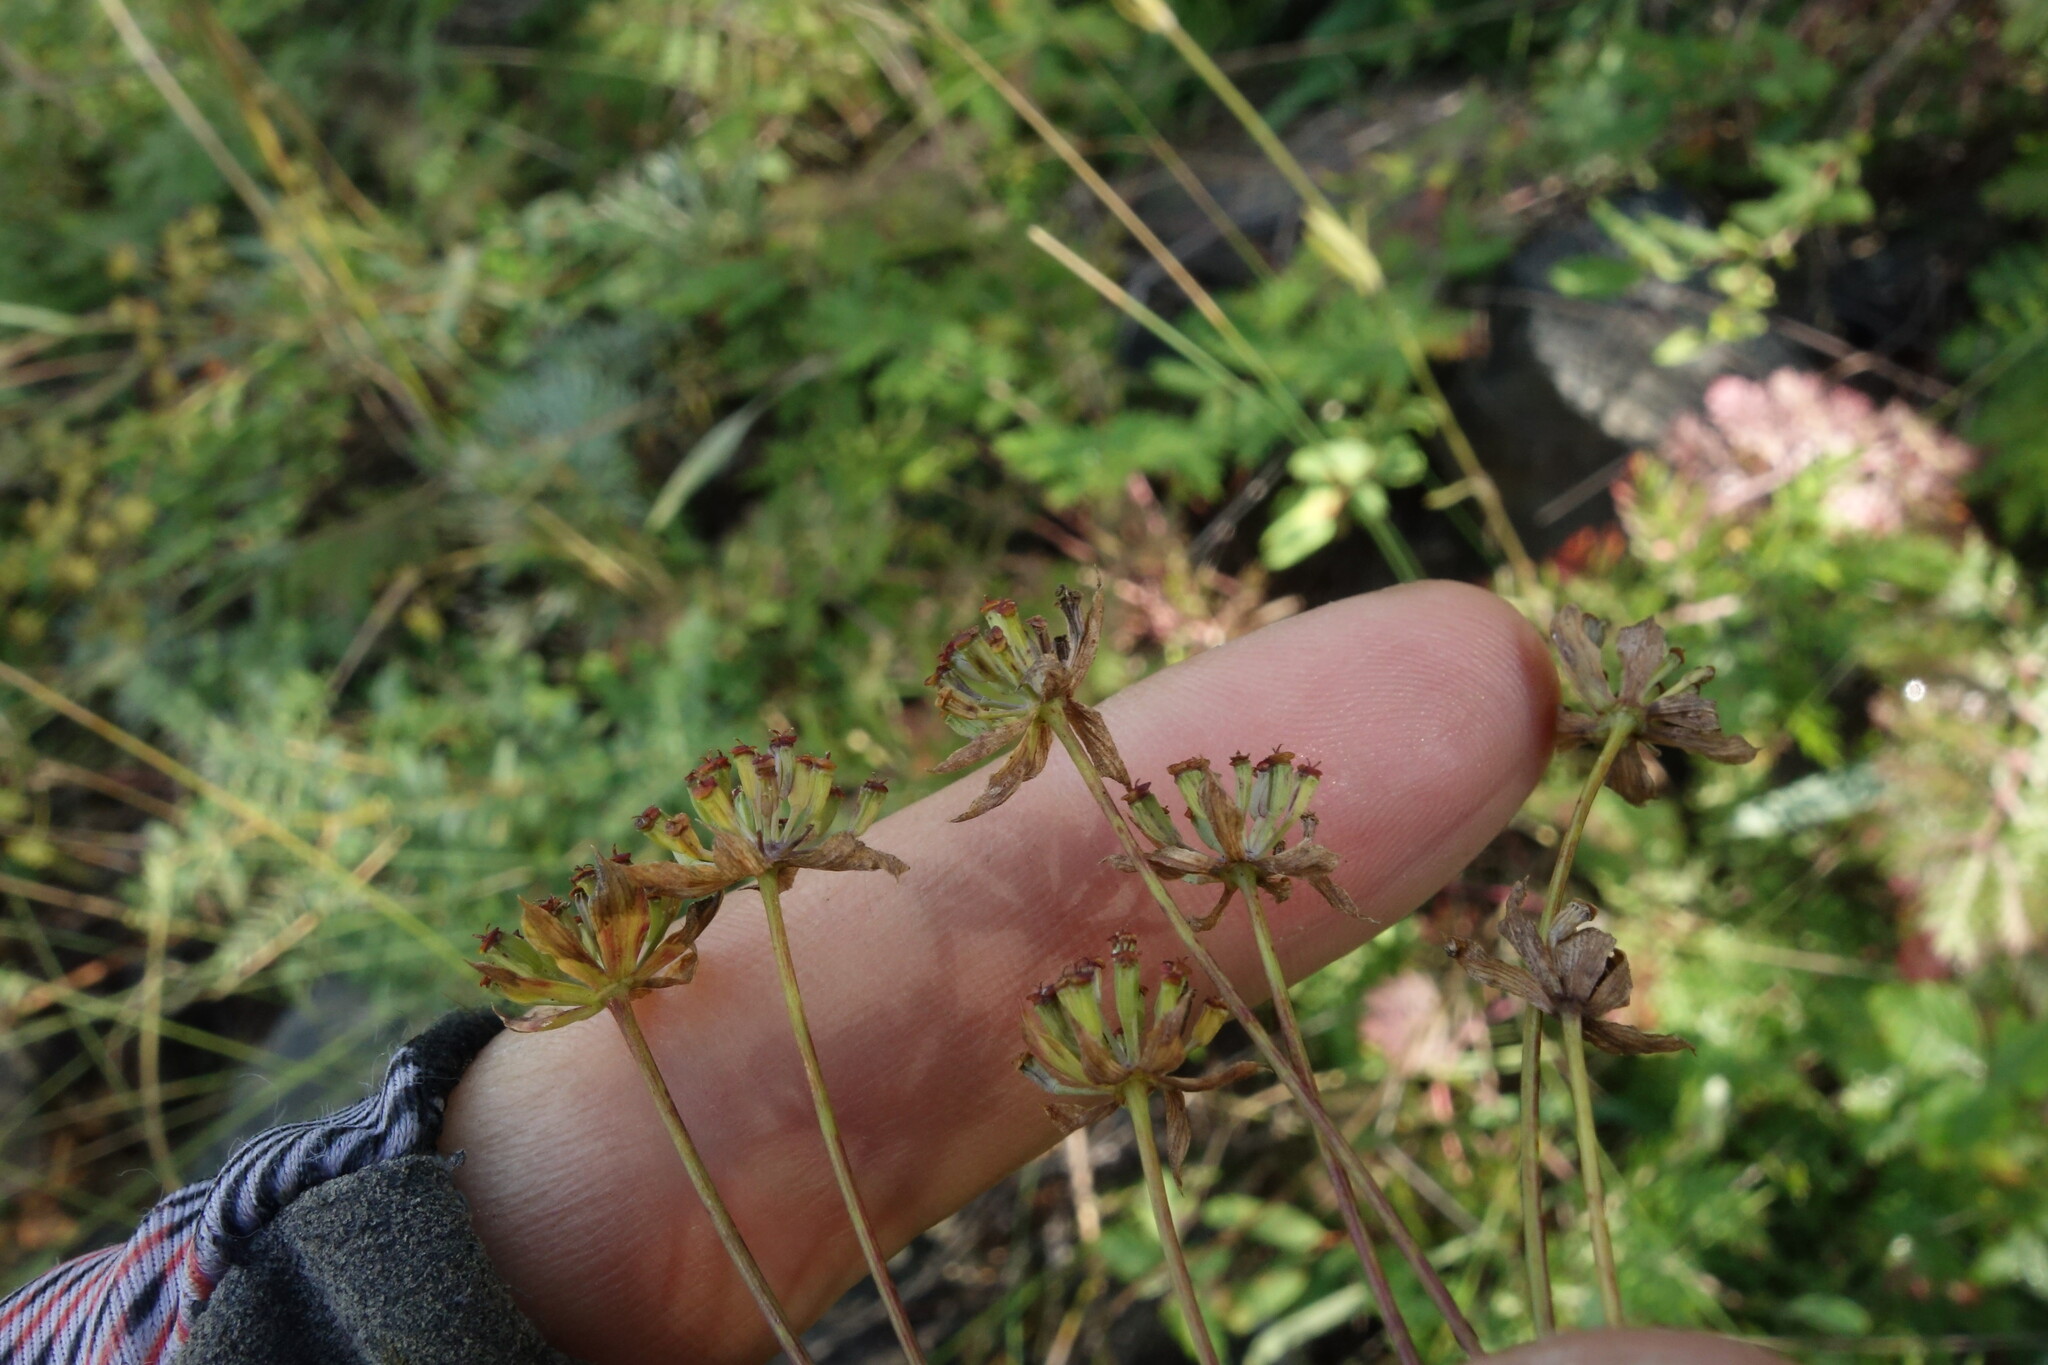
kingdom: Plantae
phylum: Tracheophyta
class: Magnoliopsida
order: Apiales
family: Apiaceae
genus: Bupleurum
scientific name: Bupleurum sibiricum
